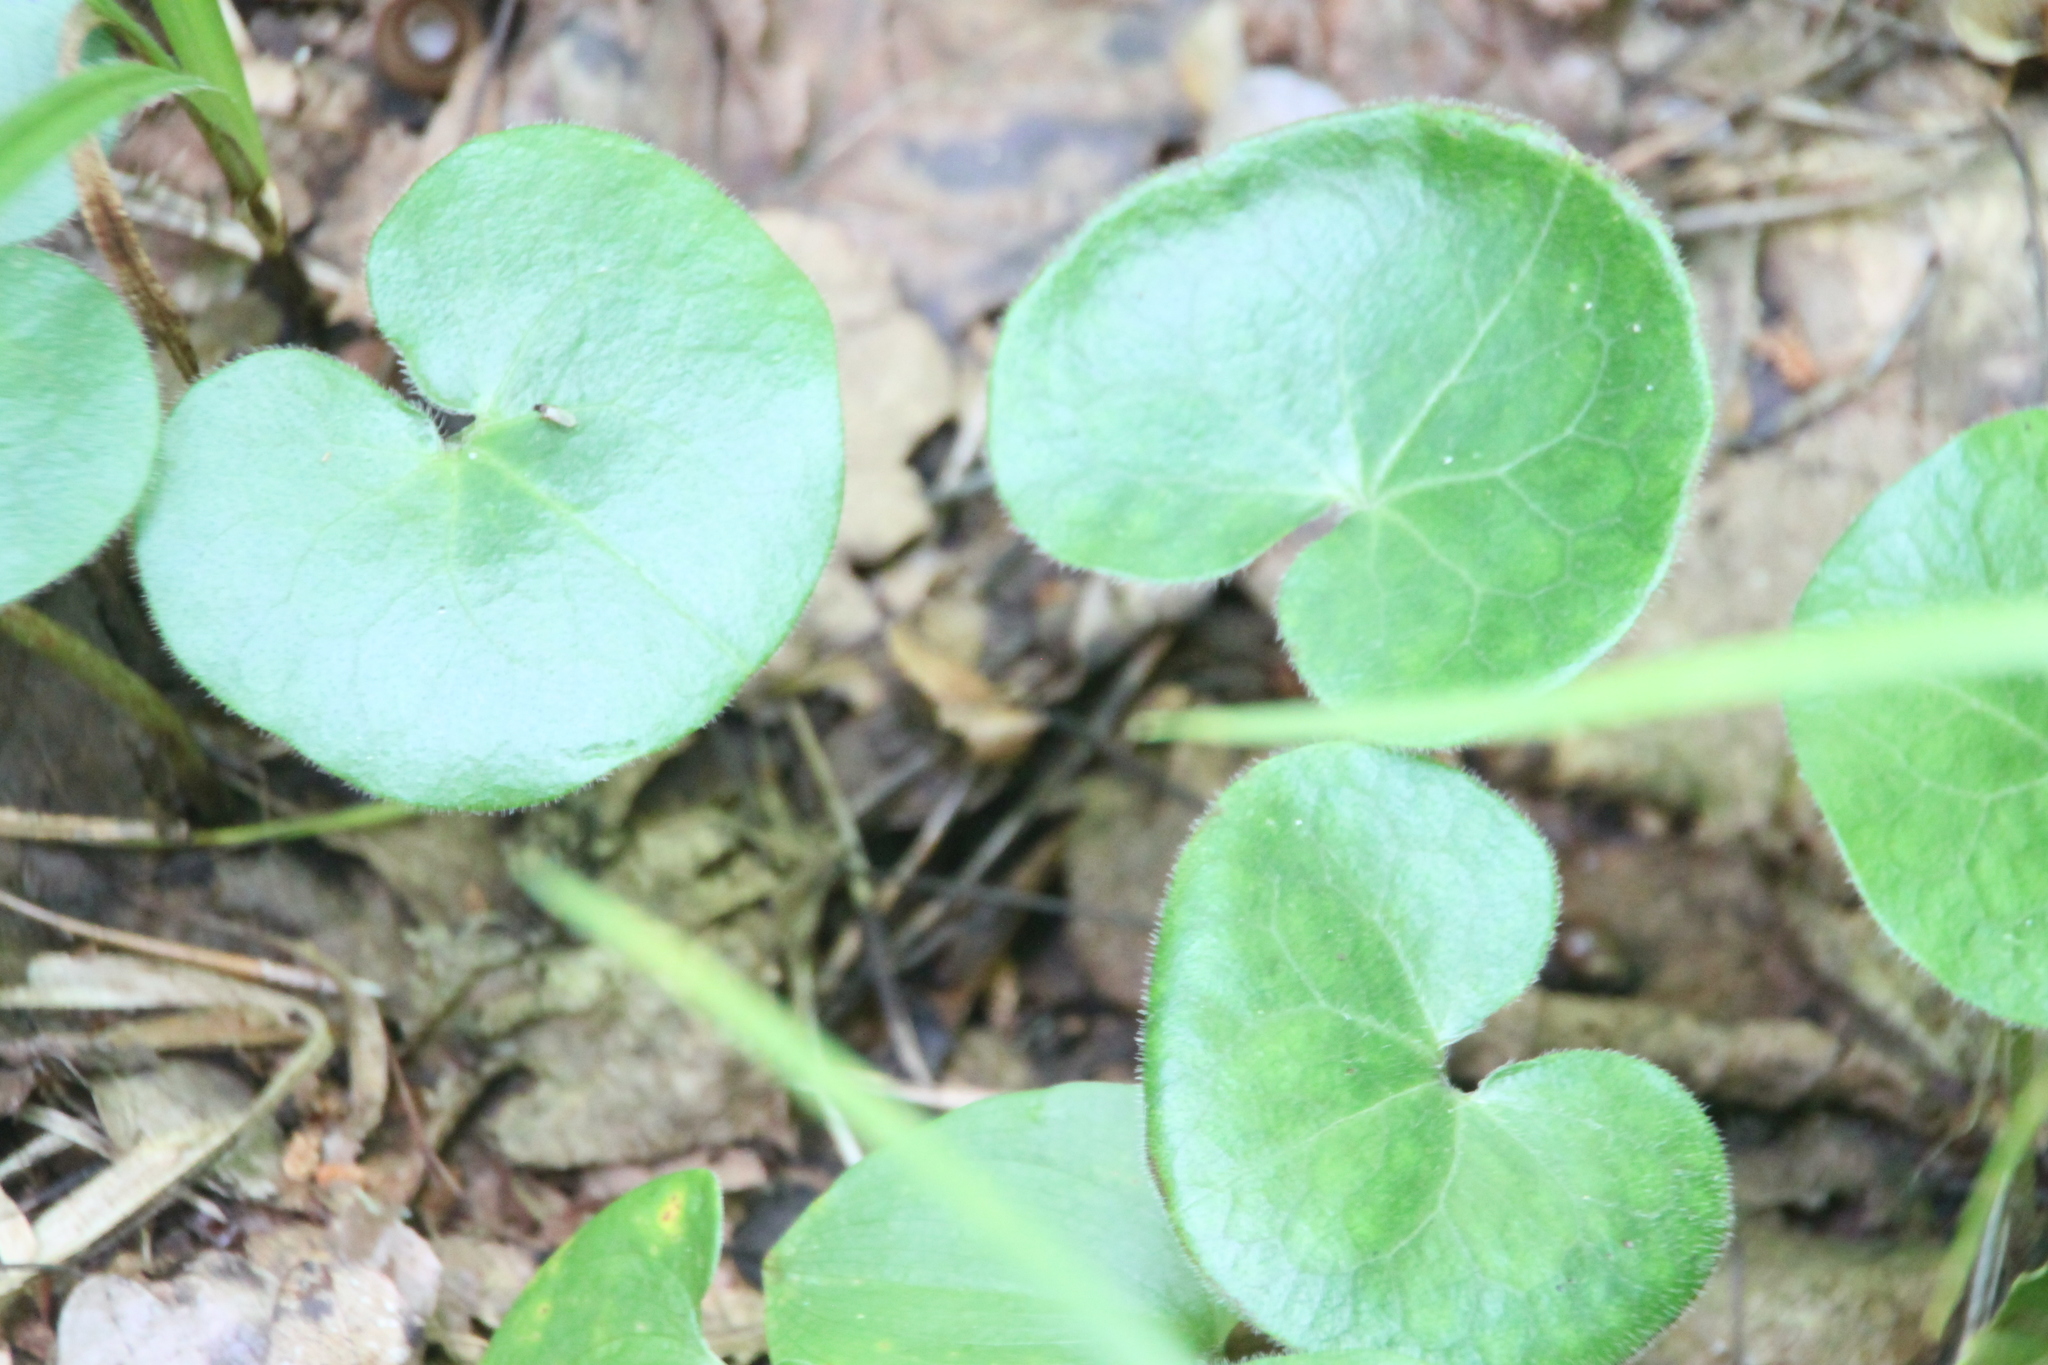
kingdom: Plantae
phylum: Tracheophyta
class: Magnoliopsida
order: Piperales
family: Aristolochiaceae
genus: Asarum
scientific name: Asarum europaeum
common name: Asarabacca
